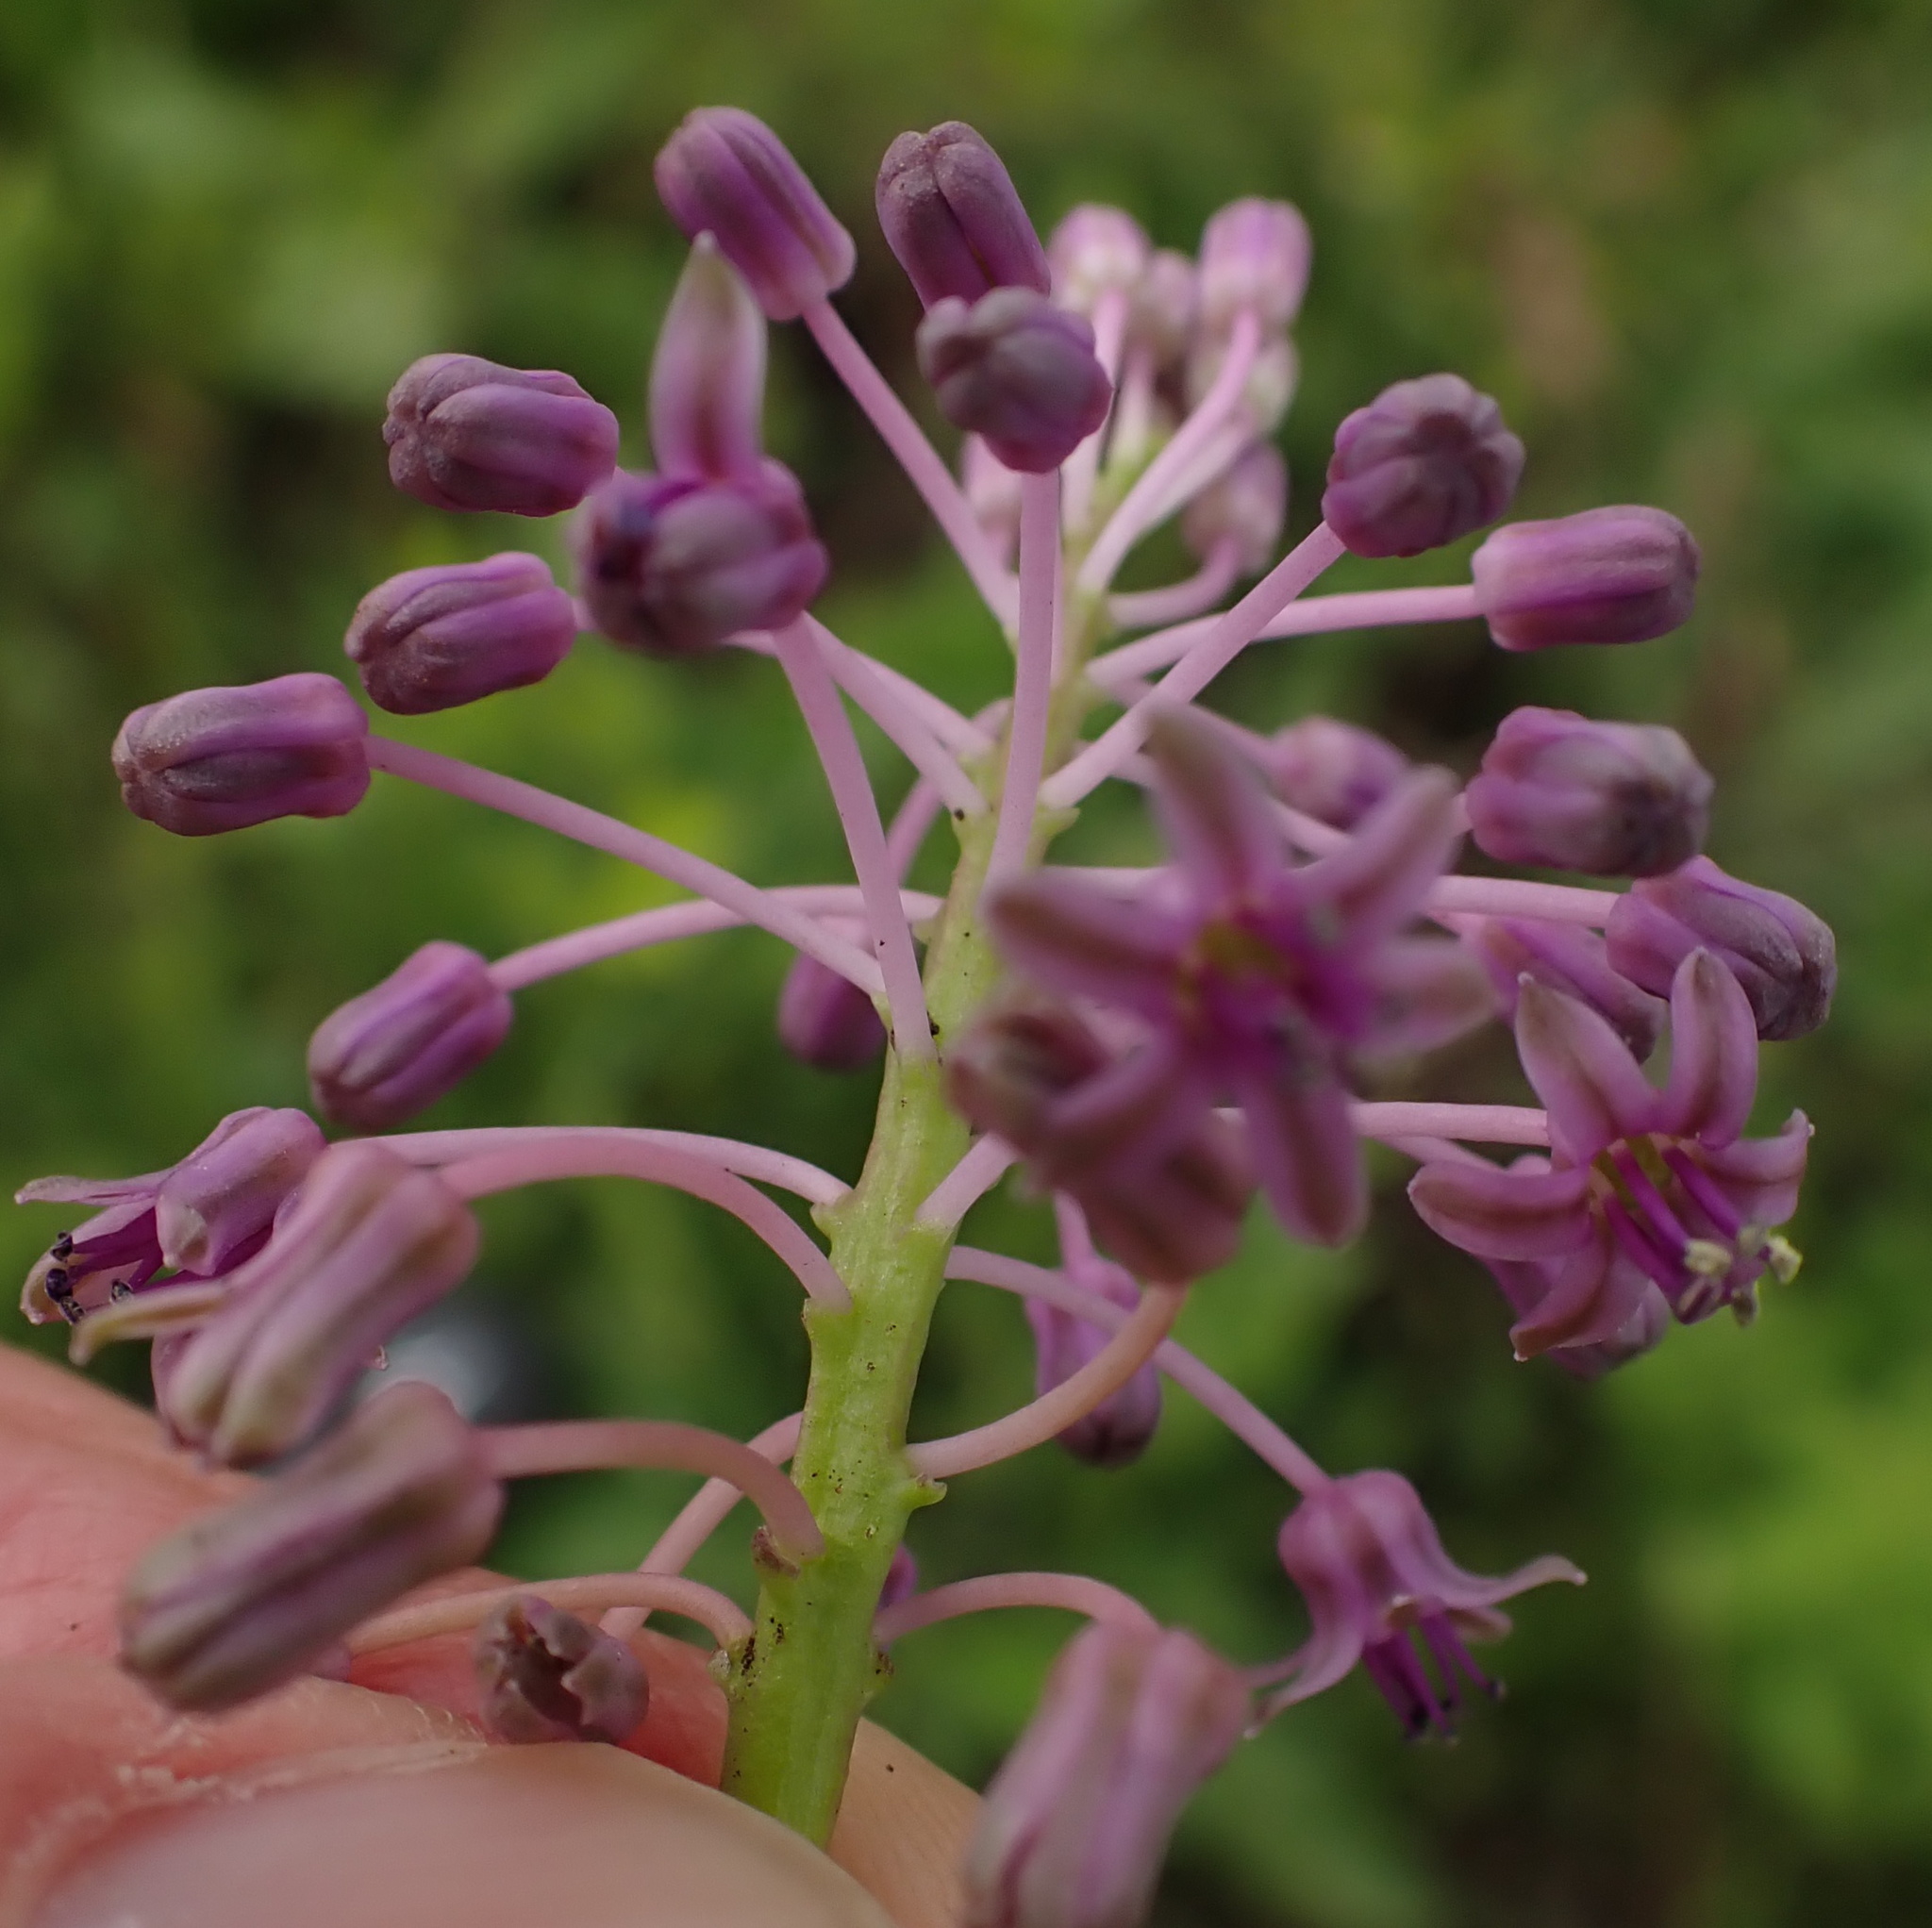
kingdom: Plantae
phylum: Tracheophyta
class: Liliopsida
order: Asparagales
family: Asparagaceae
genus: Ledebouria
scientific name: Ledebouria sandersonii
